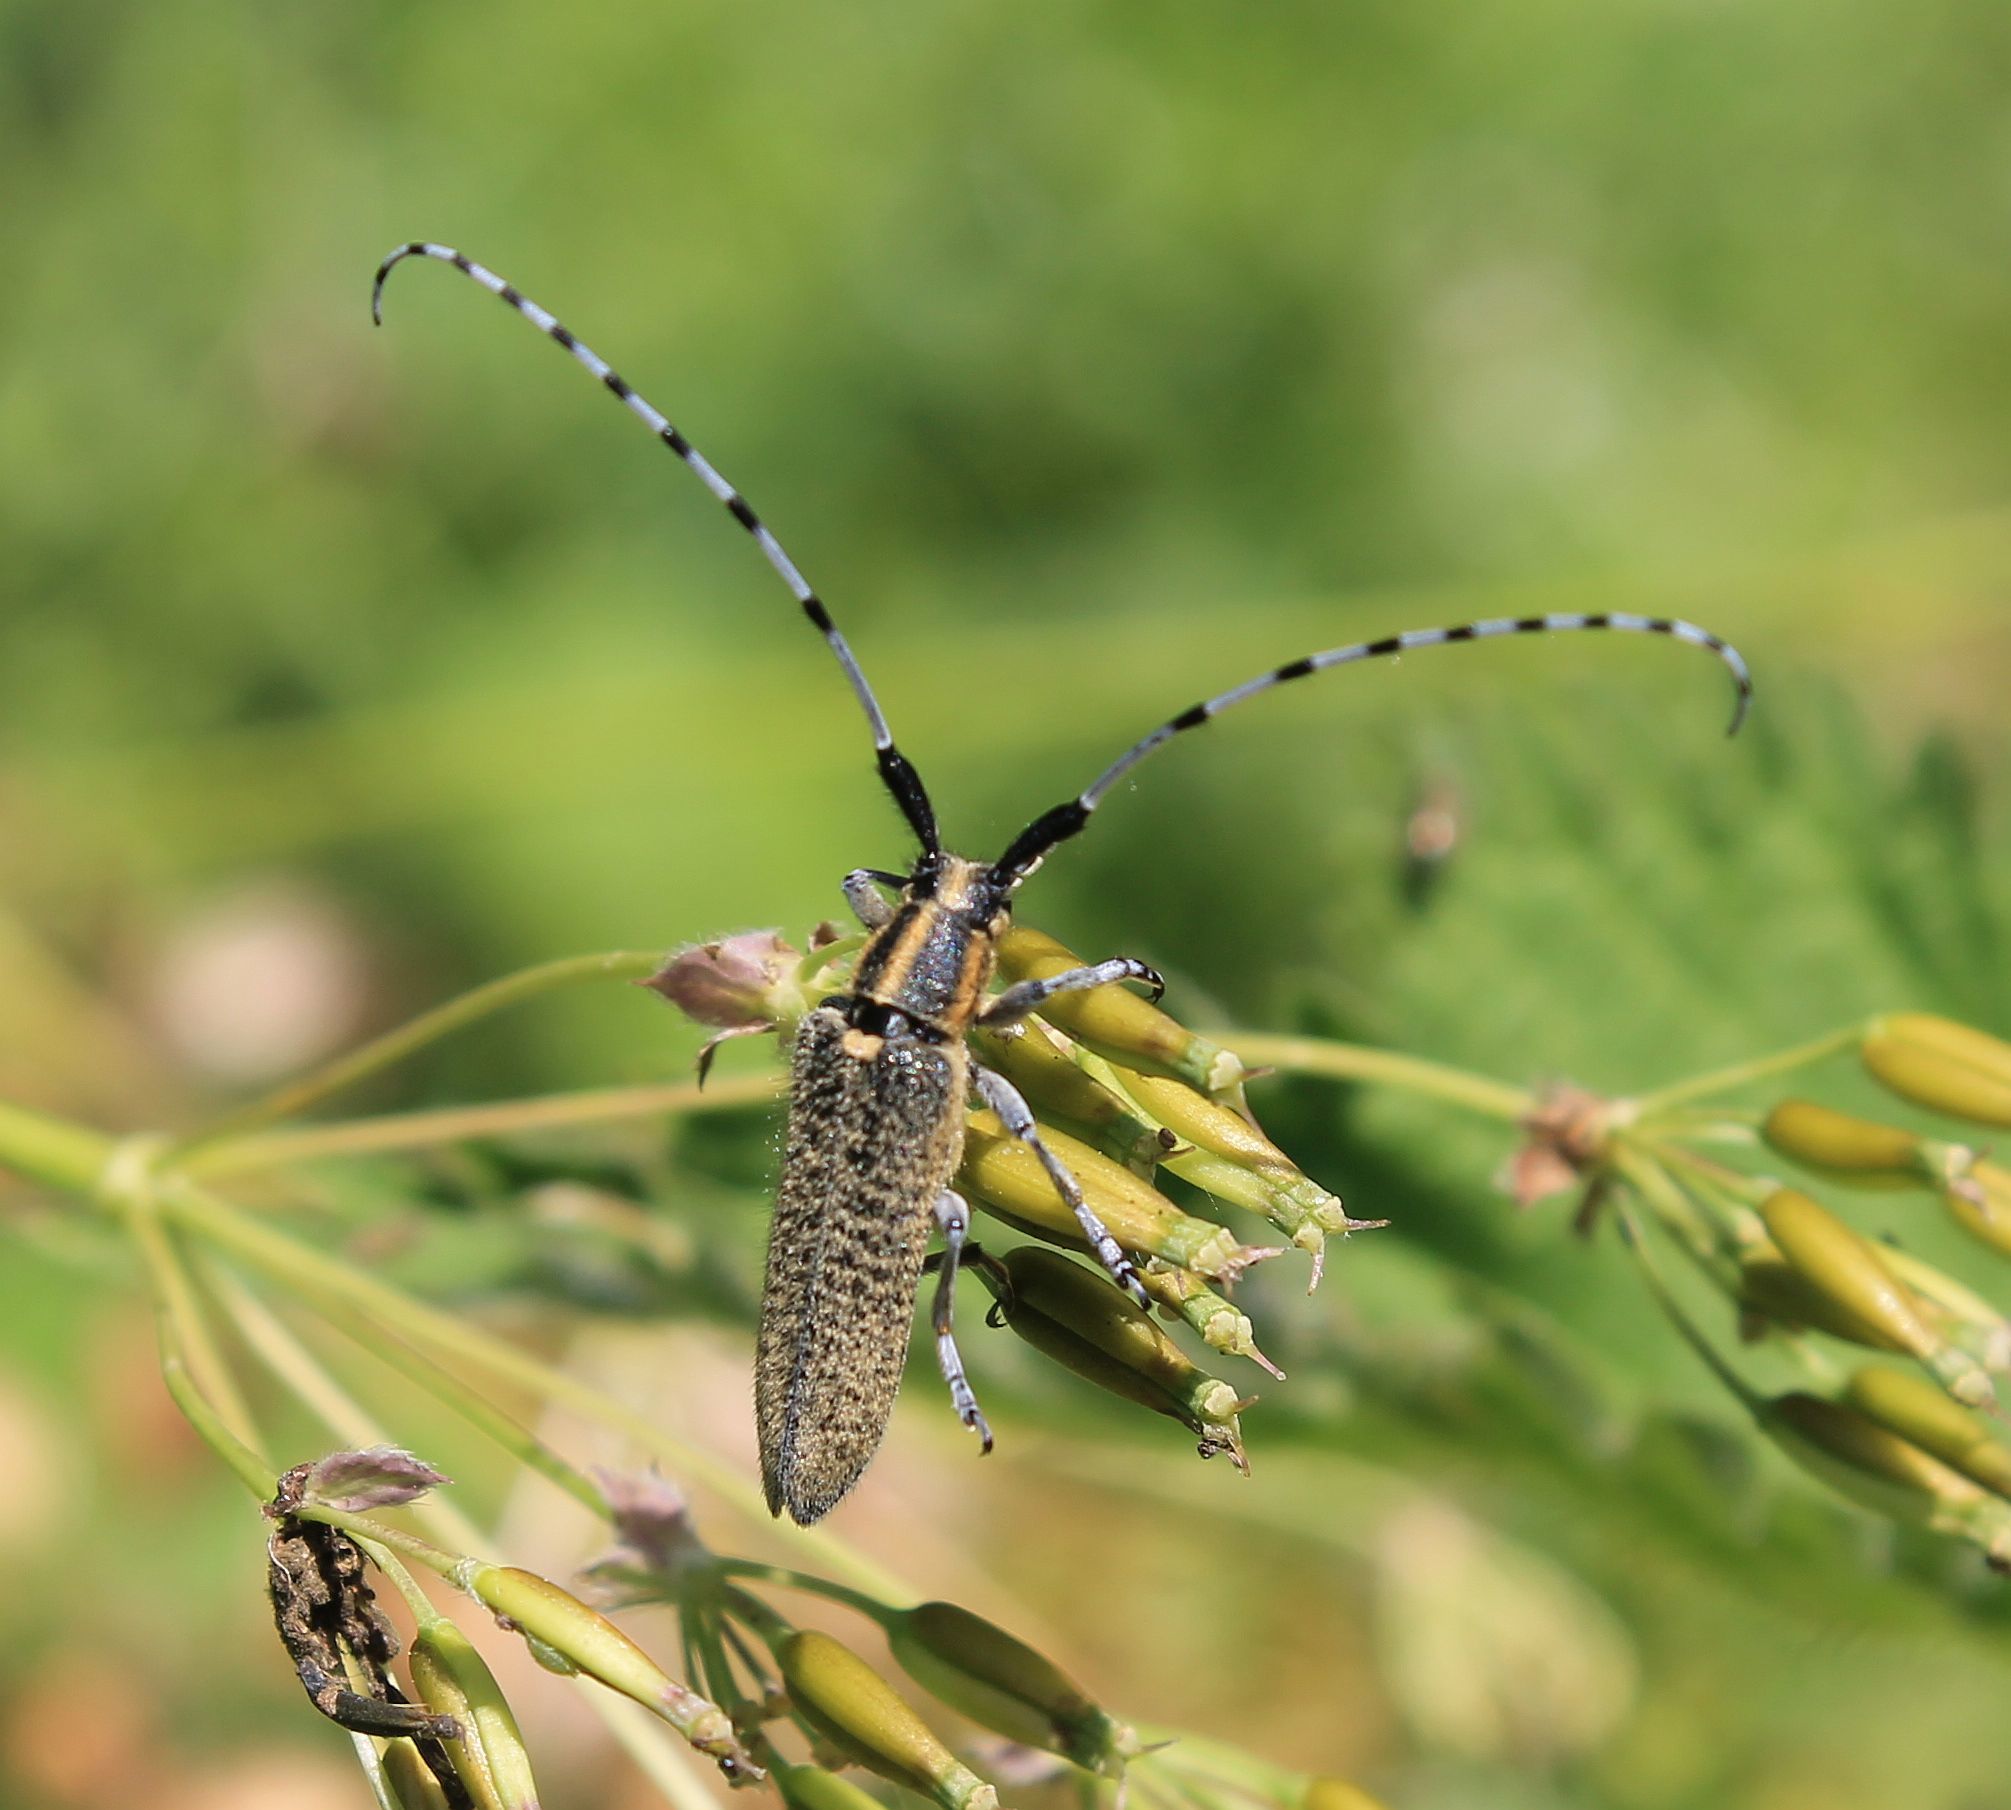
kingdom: Animalia
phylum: Arthropoda
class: Insecta
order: Coleoptera
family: Cerambycidae
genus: Agapanthia
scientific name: Agapanthia villosoviridescens
